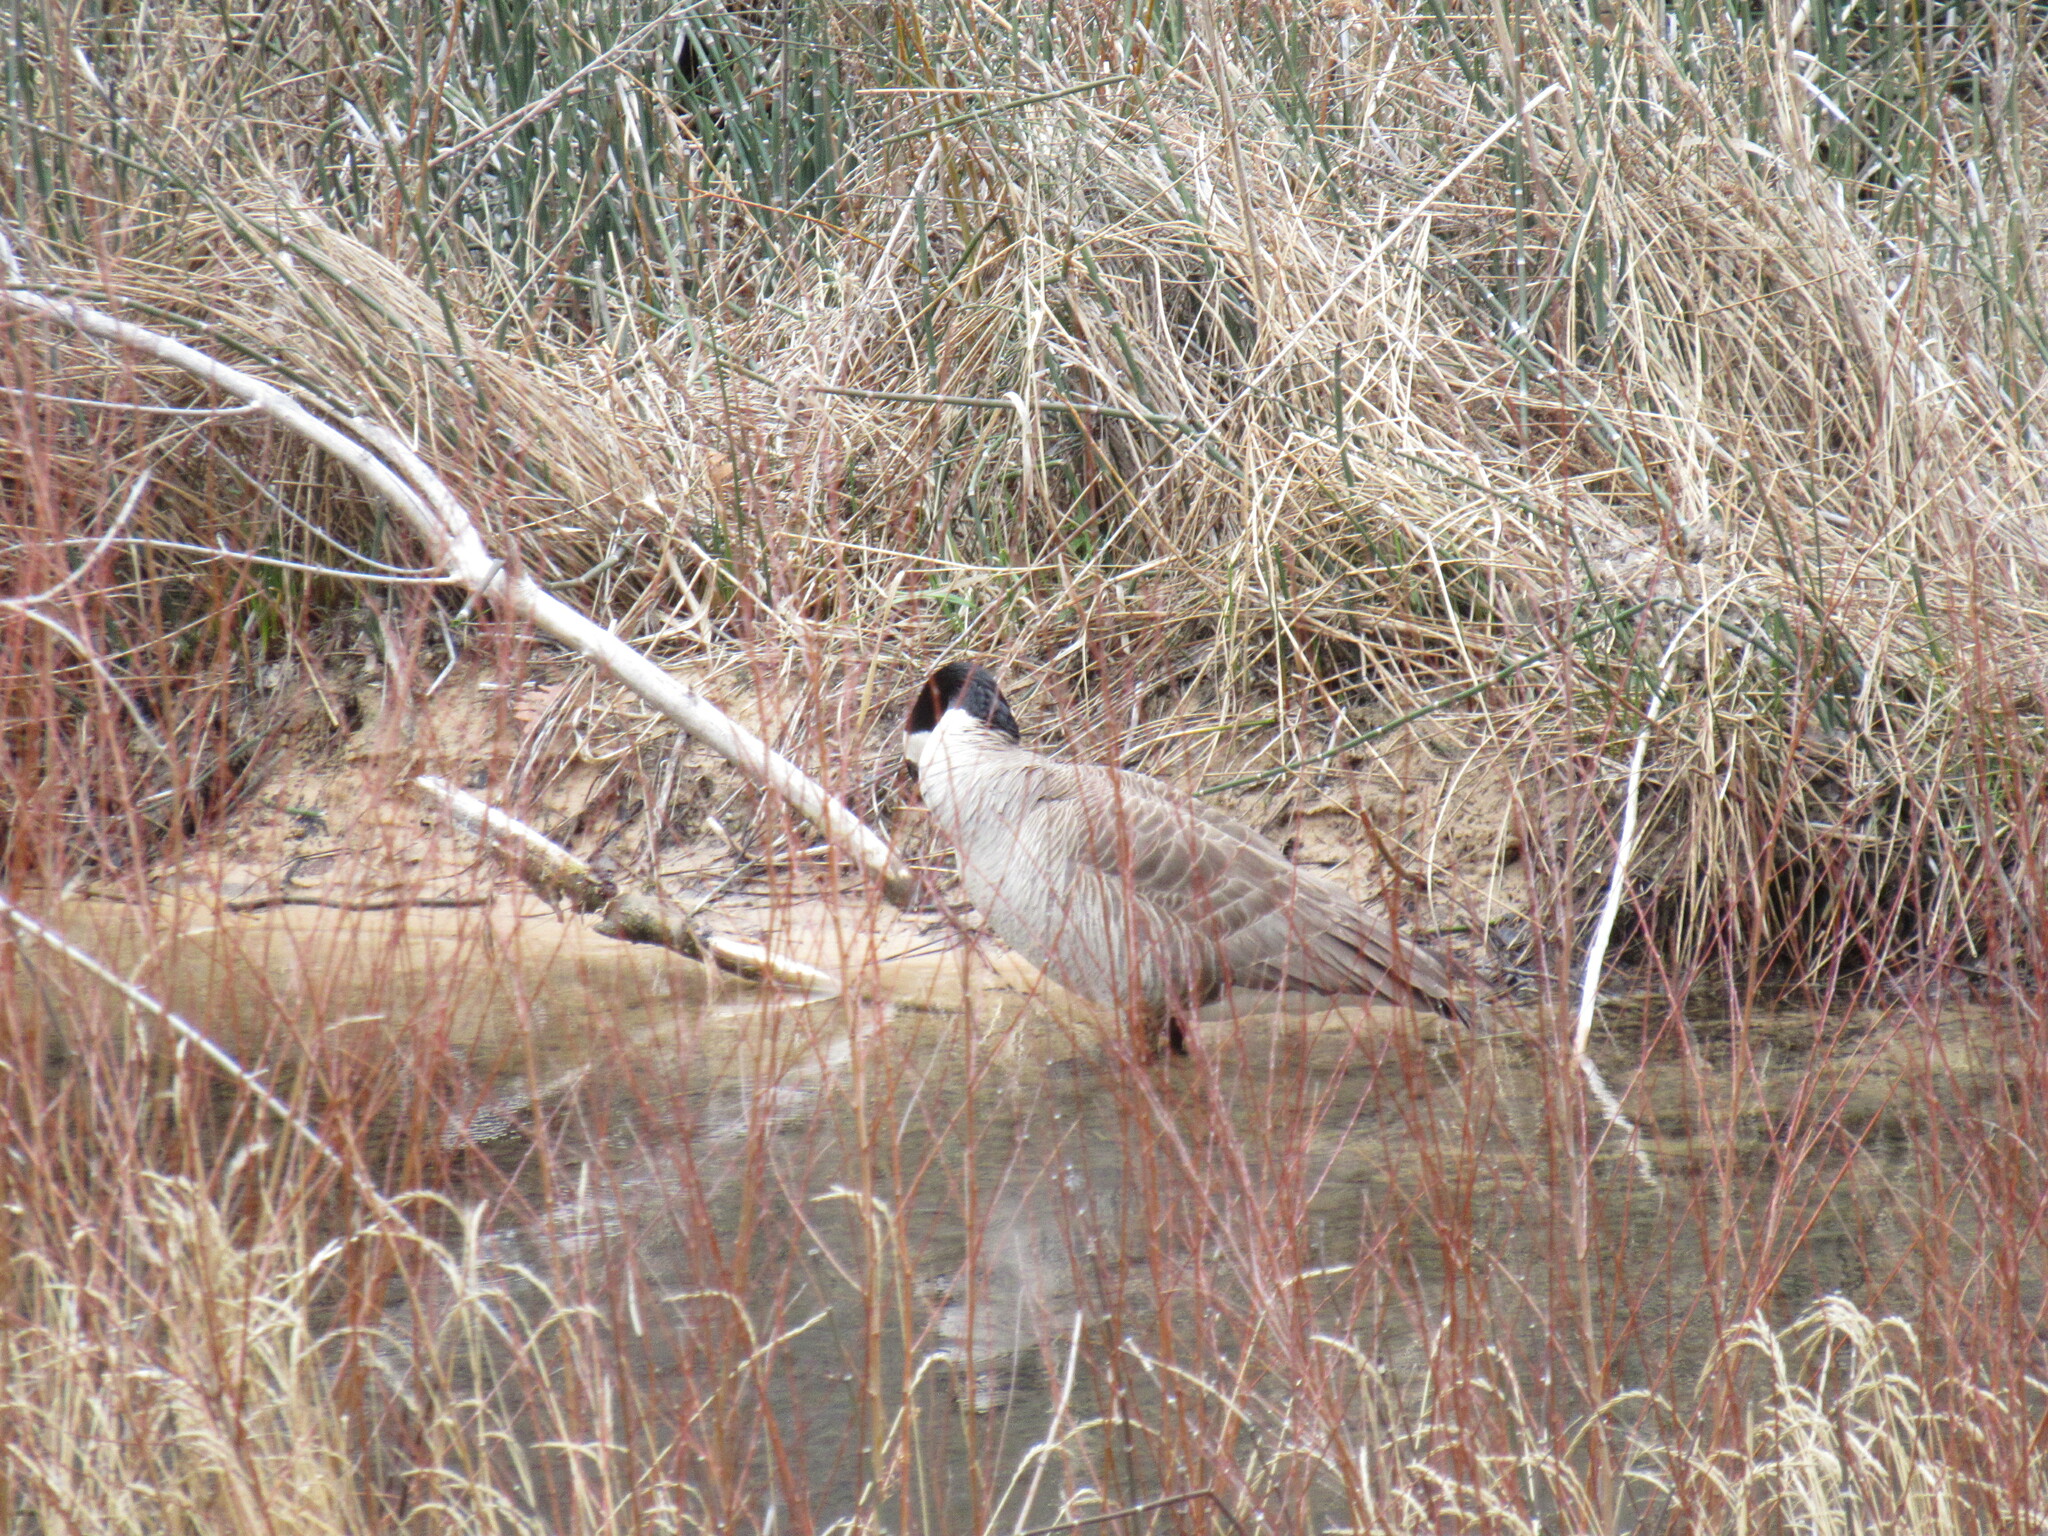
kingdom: Animalia
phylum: Chordata
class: Aves
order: Anseriformes
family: Anatidae
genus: Branta
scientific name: Branta canadensis
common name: Canada goose
